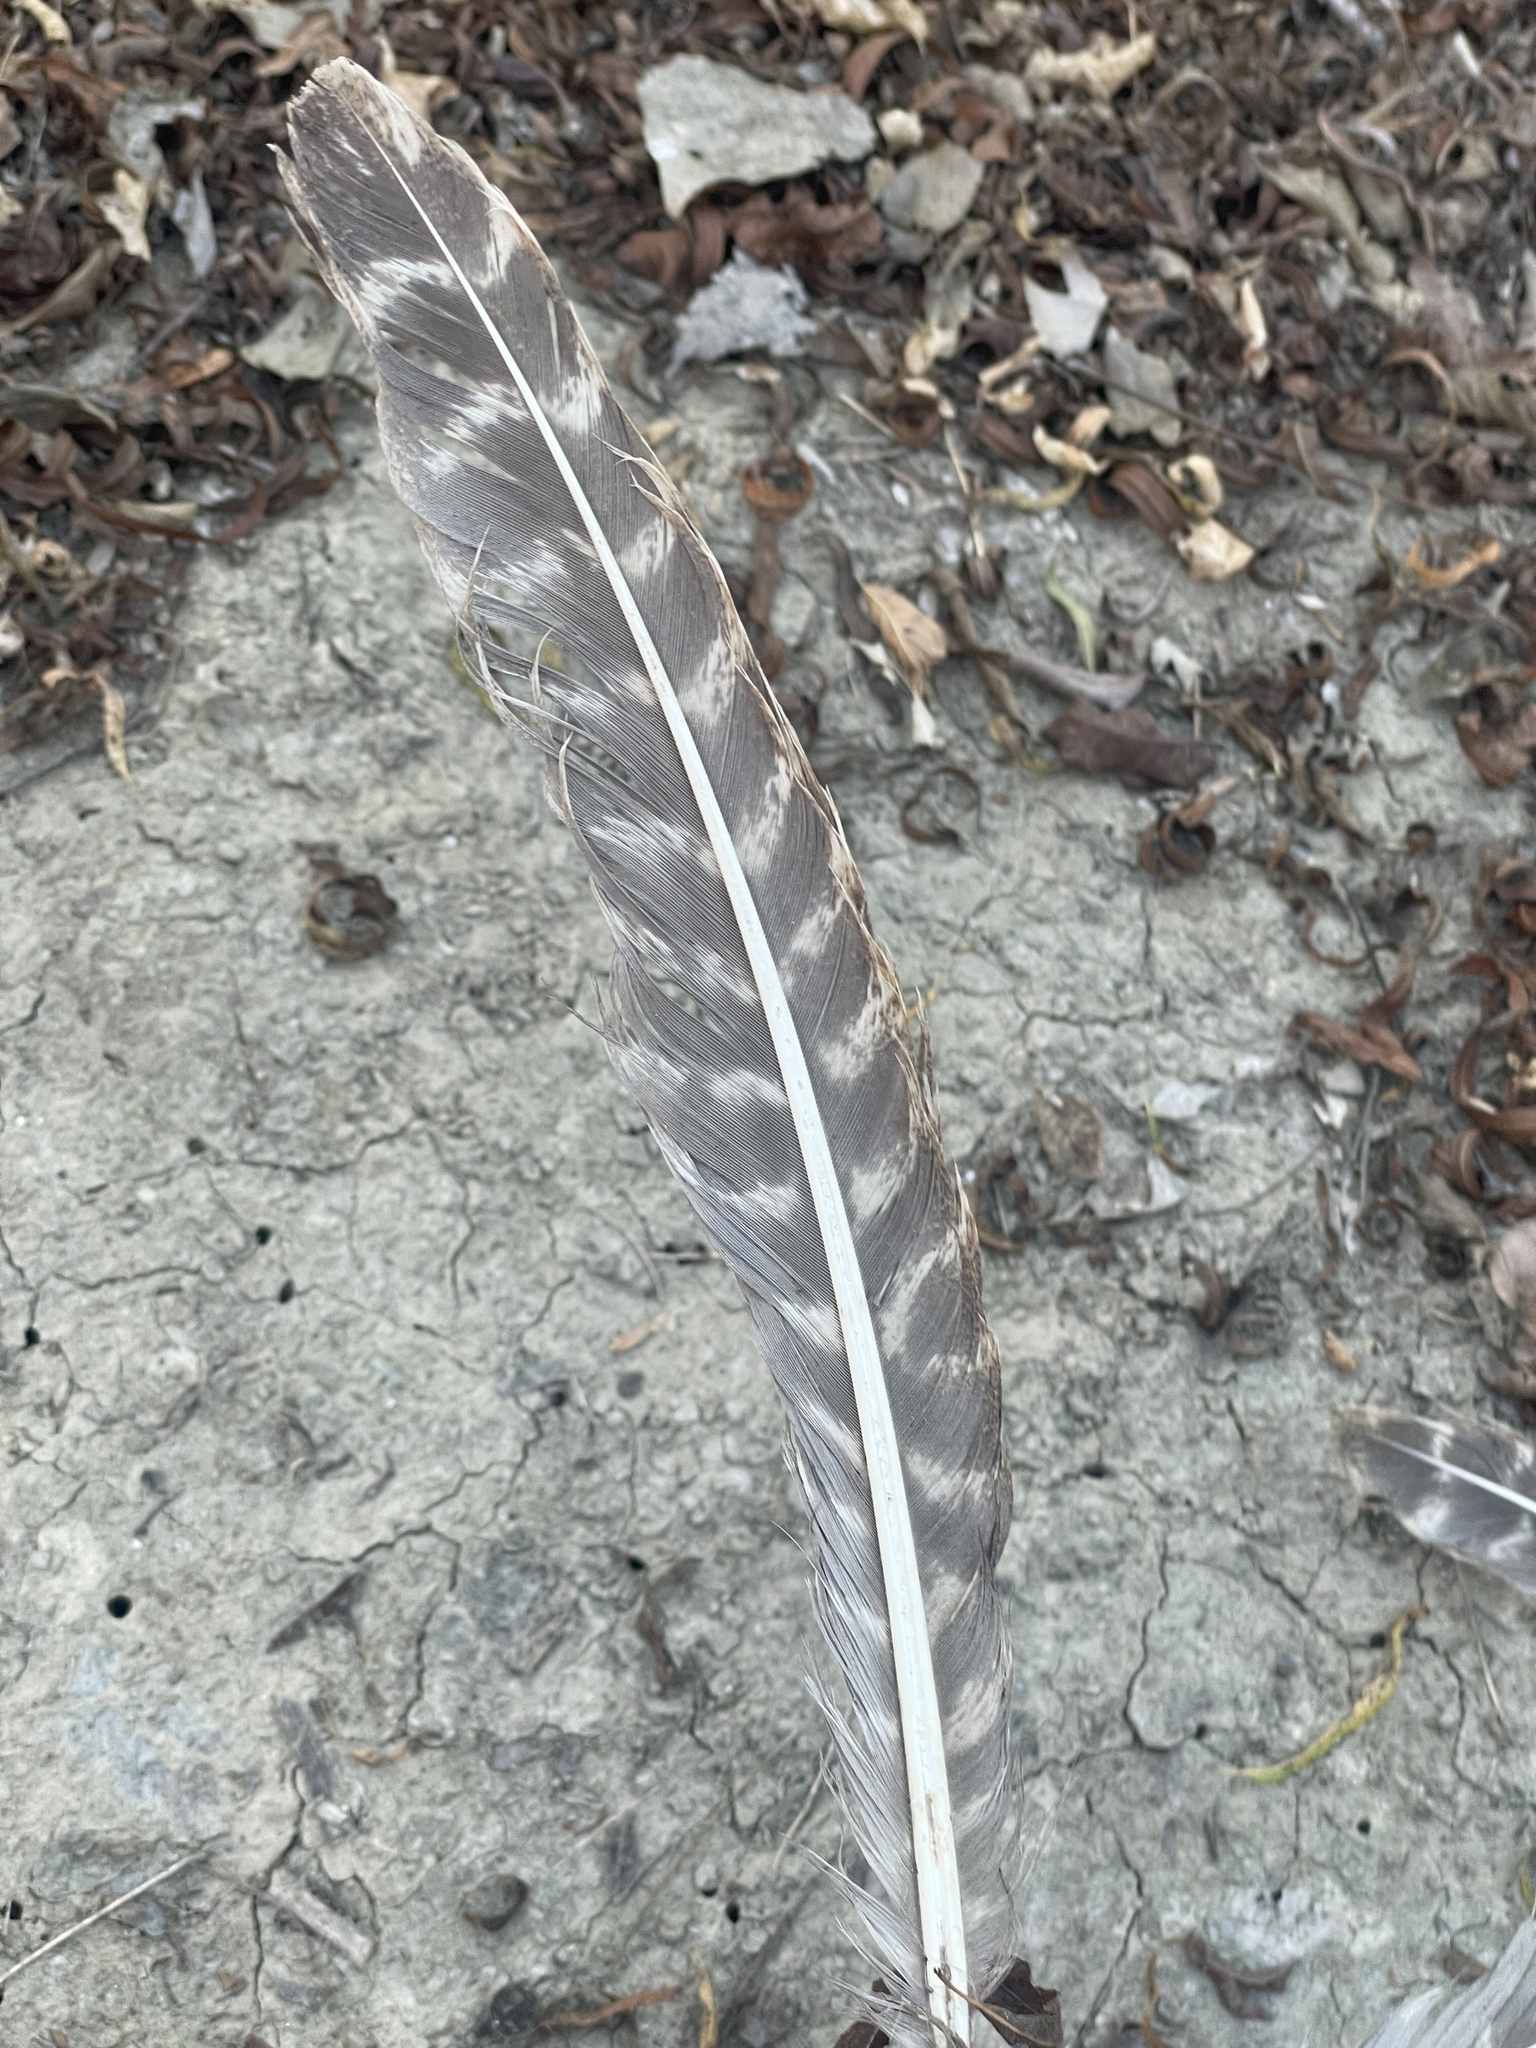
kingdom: Animalia
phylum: Chordata
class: Aves
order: Galliformes
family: Phasianidae
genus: Meleagris
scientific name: Meleagris gallopavo
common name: Wild turkey
